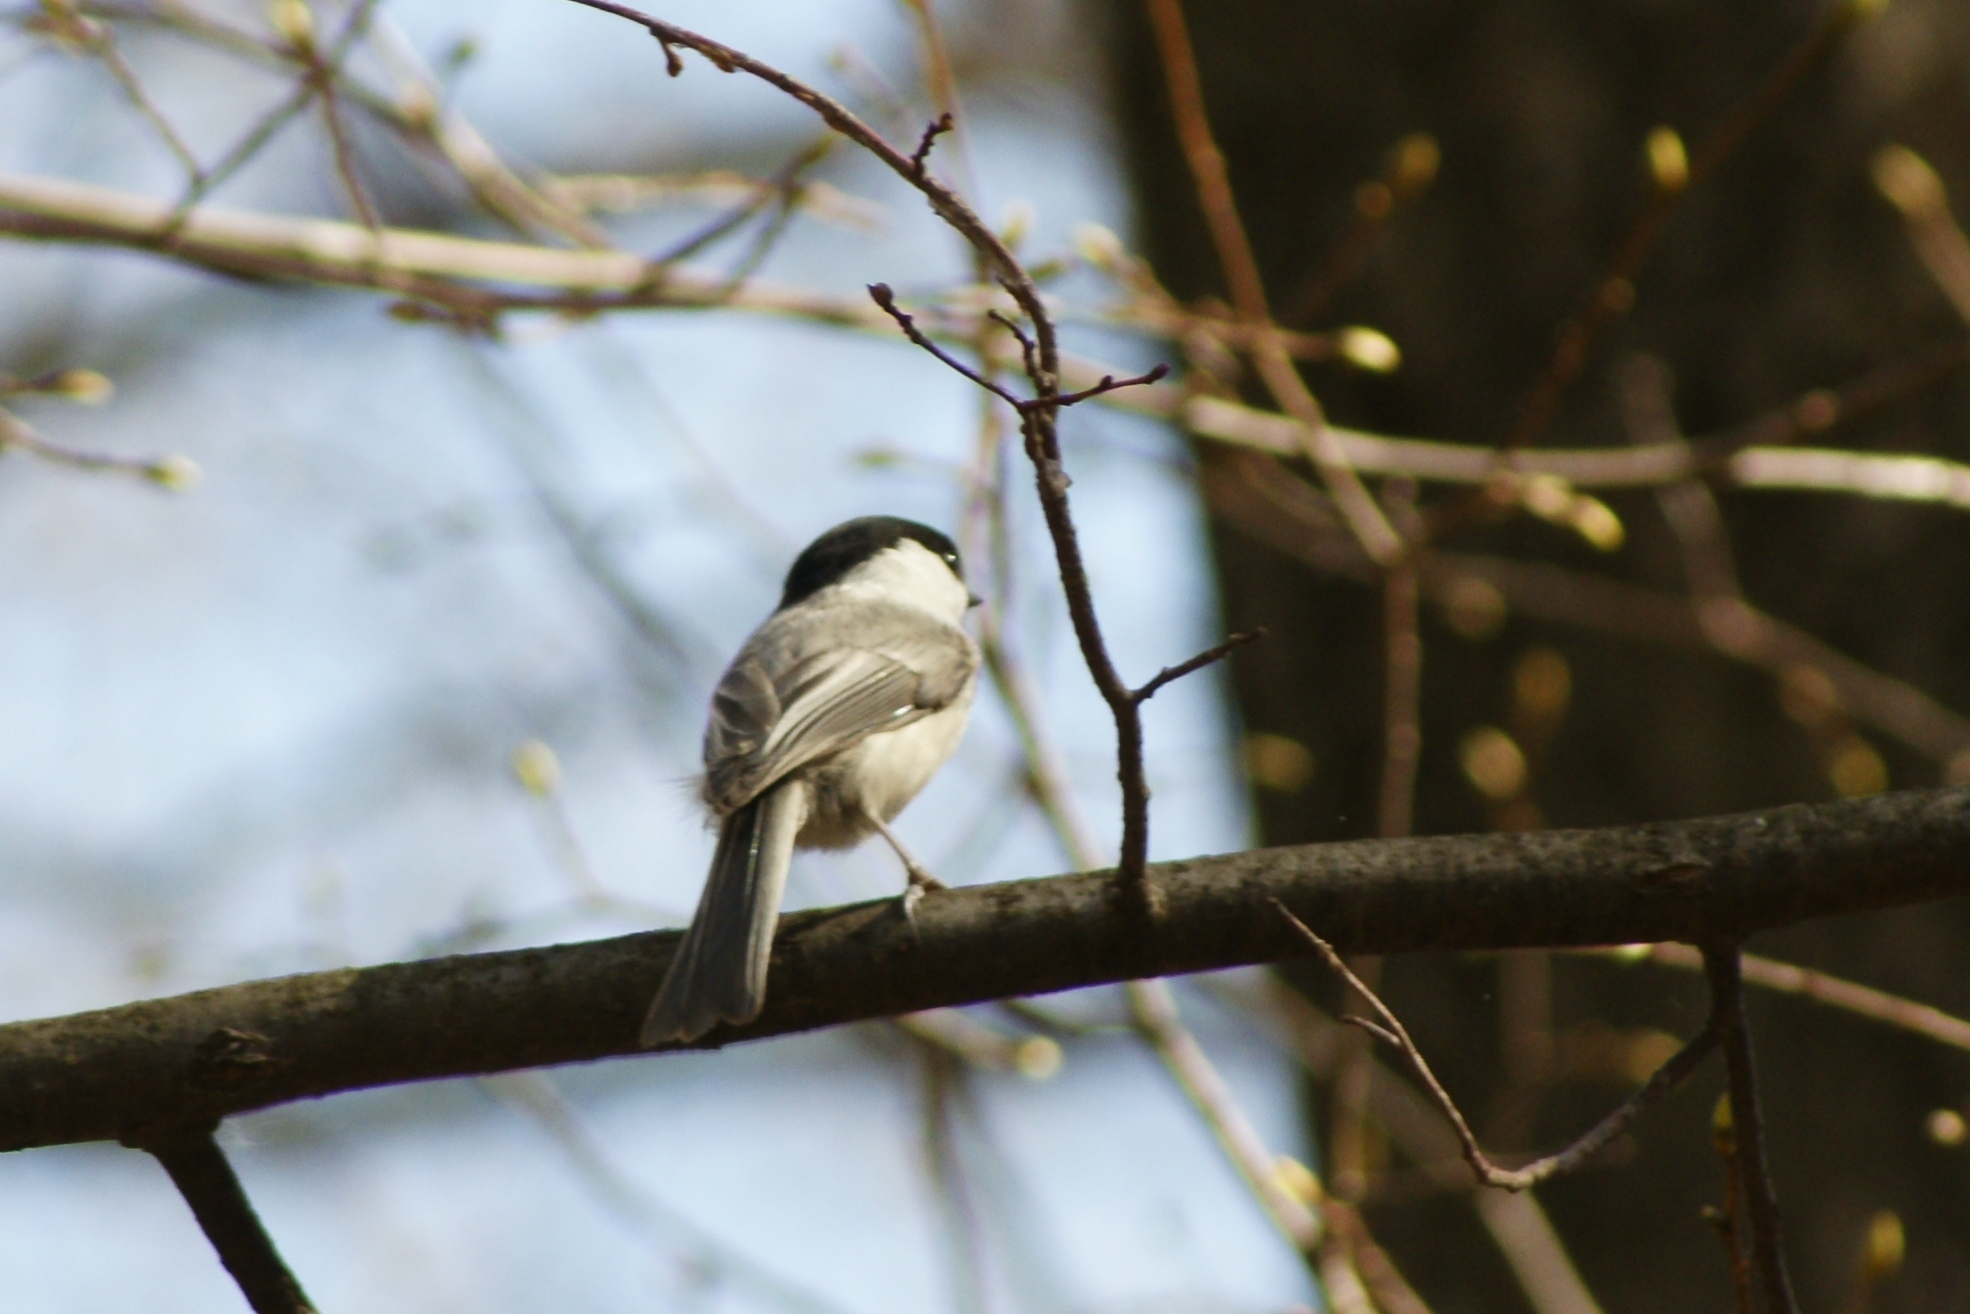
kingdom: Animalia
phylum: Chordata
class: Aves
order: Passeriformes
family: Paridae
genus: Poecile
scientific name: Poecile montanus
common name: Willow tit
